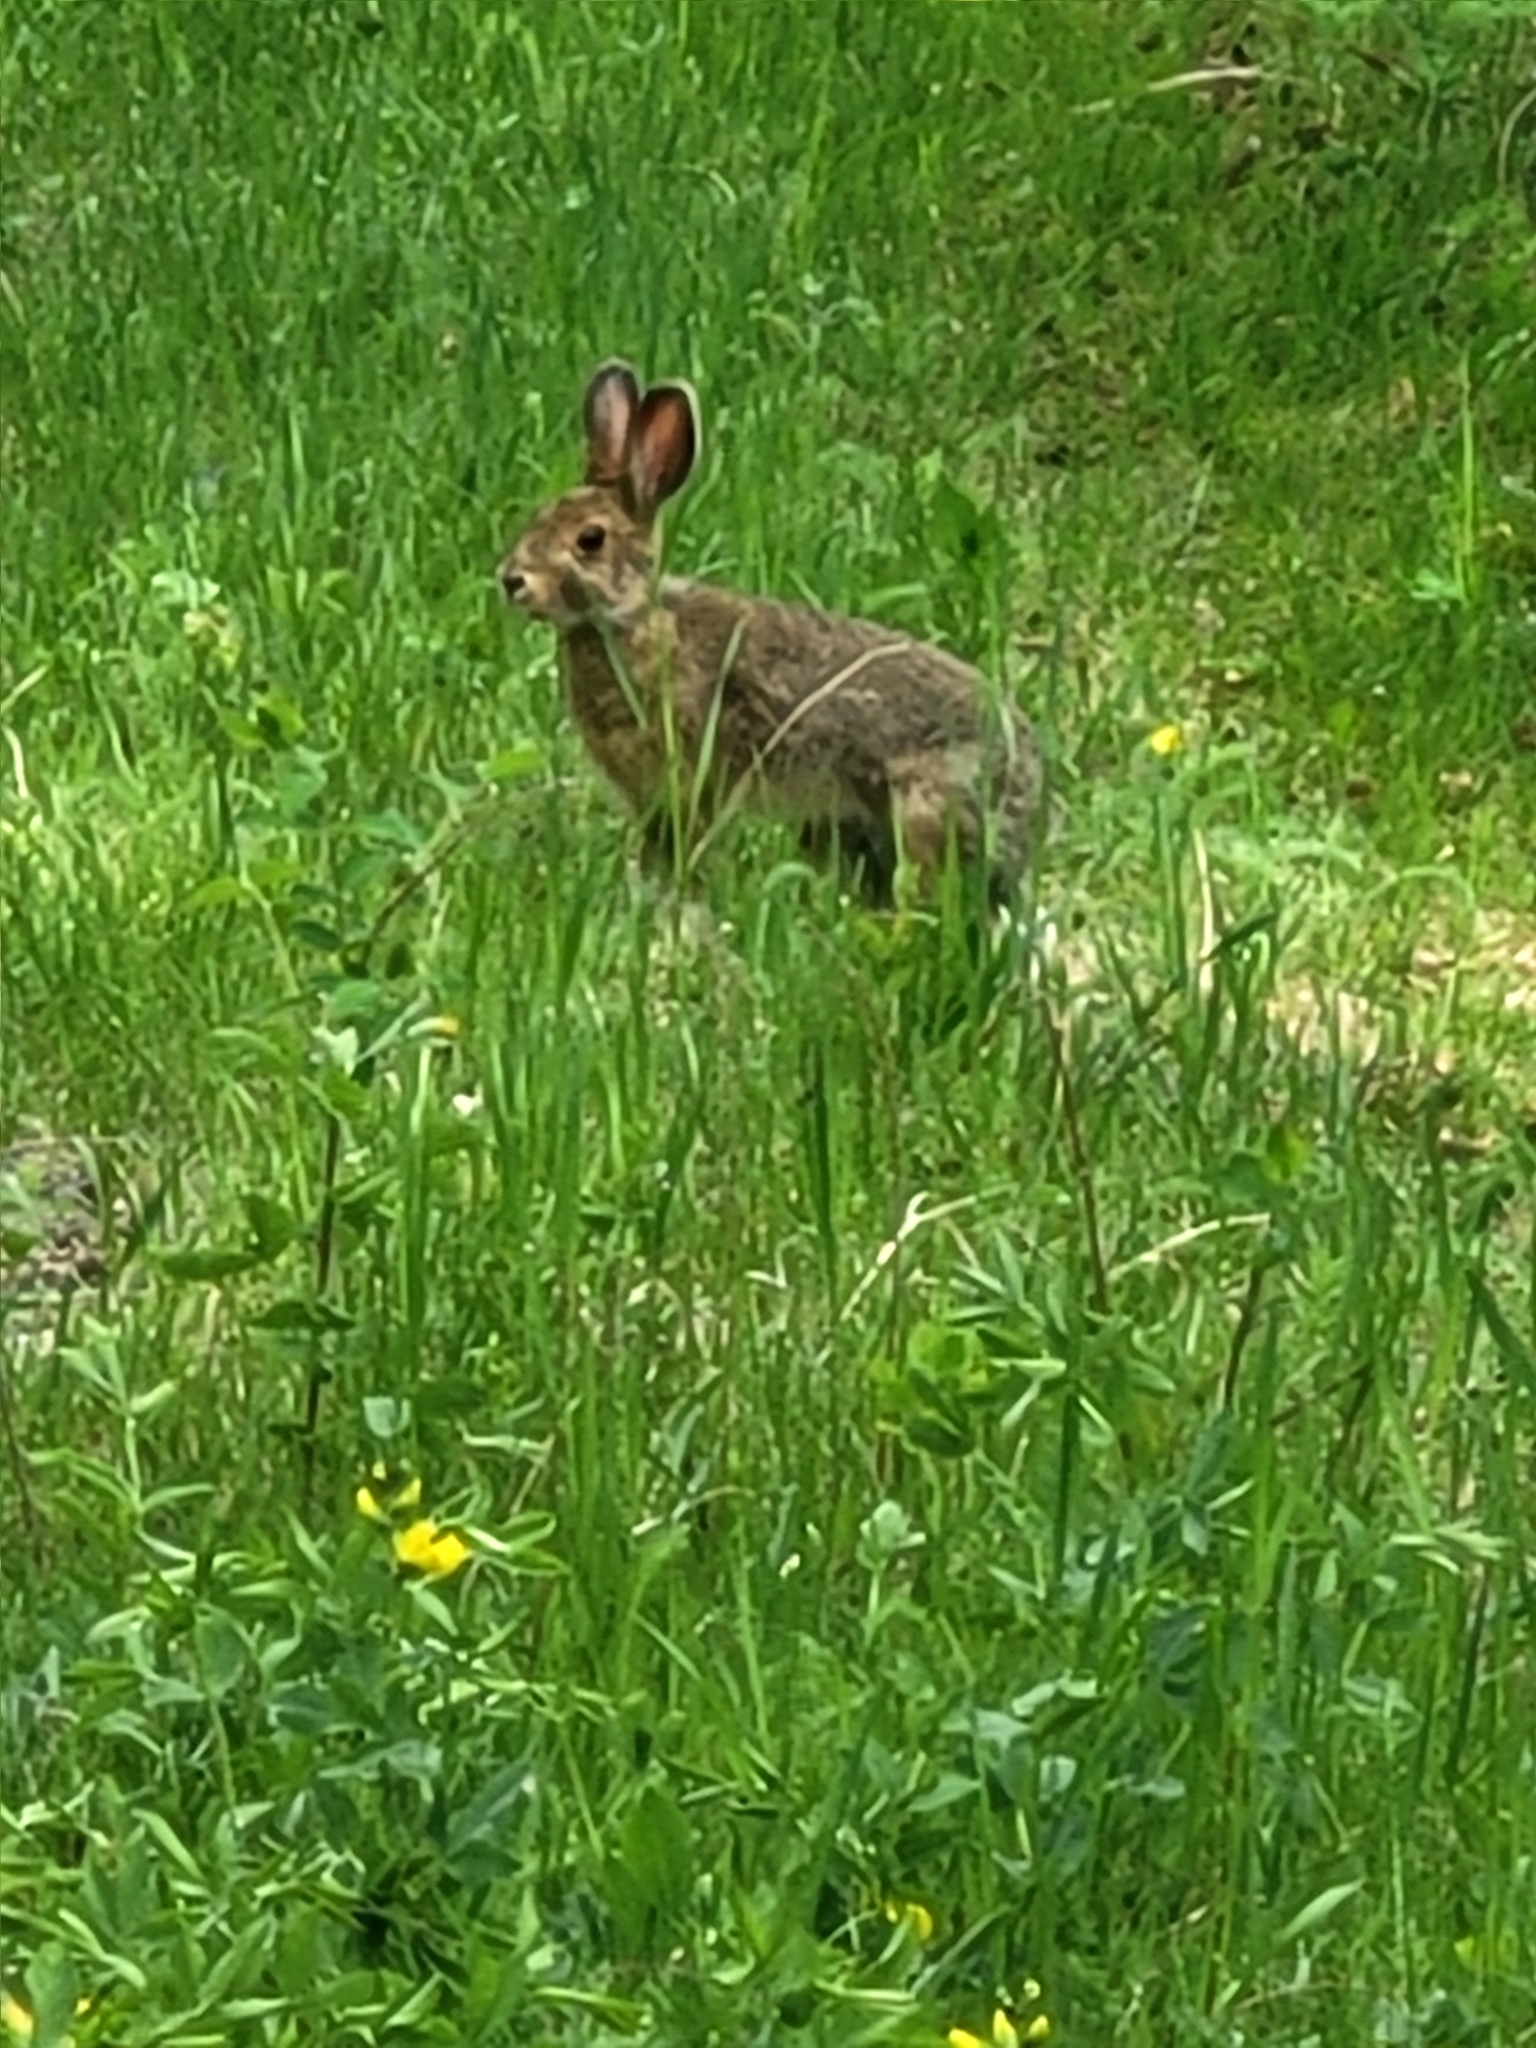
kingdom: Animalia
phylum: Chordata
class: Mammalia
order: Lagomorpha
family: Leporidae
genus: Lepus
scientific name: Lepus americanus
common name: Snowshoe hare
